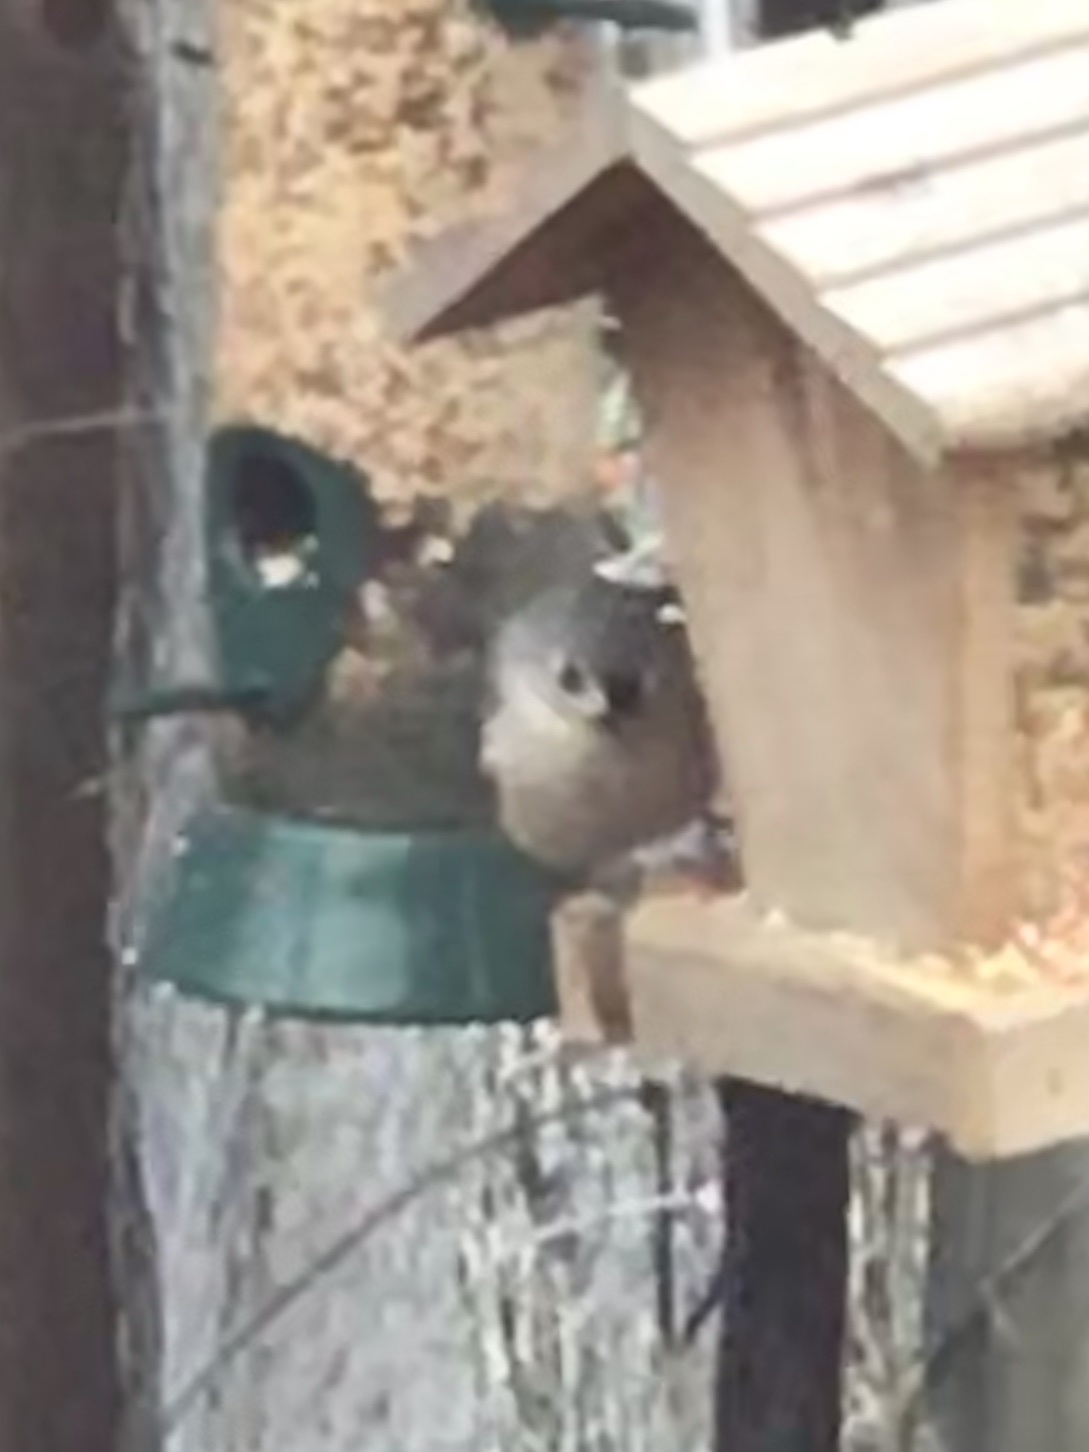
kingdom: Animalia
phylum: Chordata
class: Aves
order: Passeriformes
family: Paridae
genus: Baeolophus
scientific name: Baeolophus bicolor
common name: Tufted titmouse
